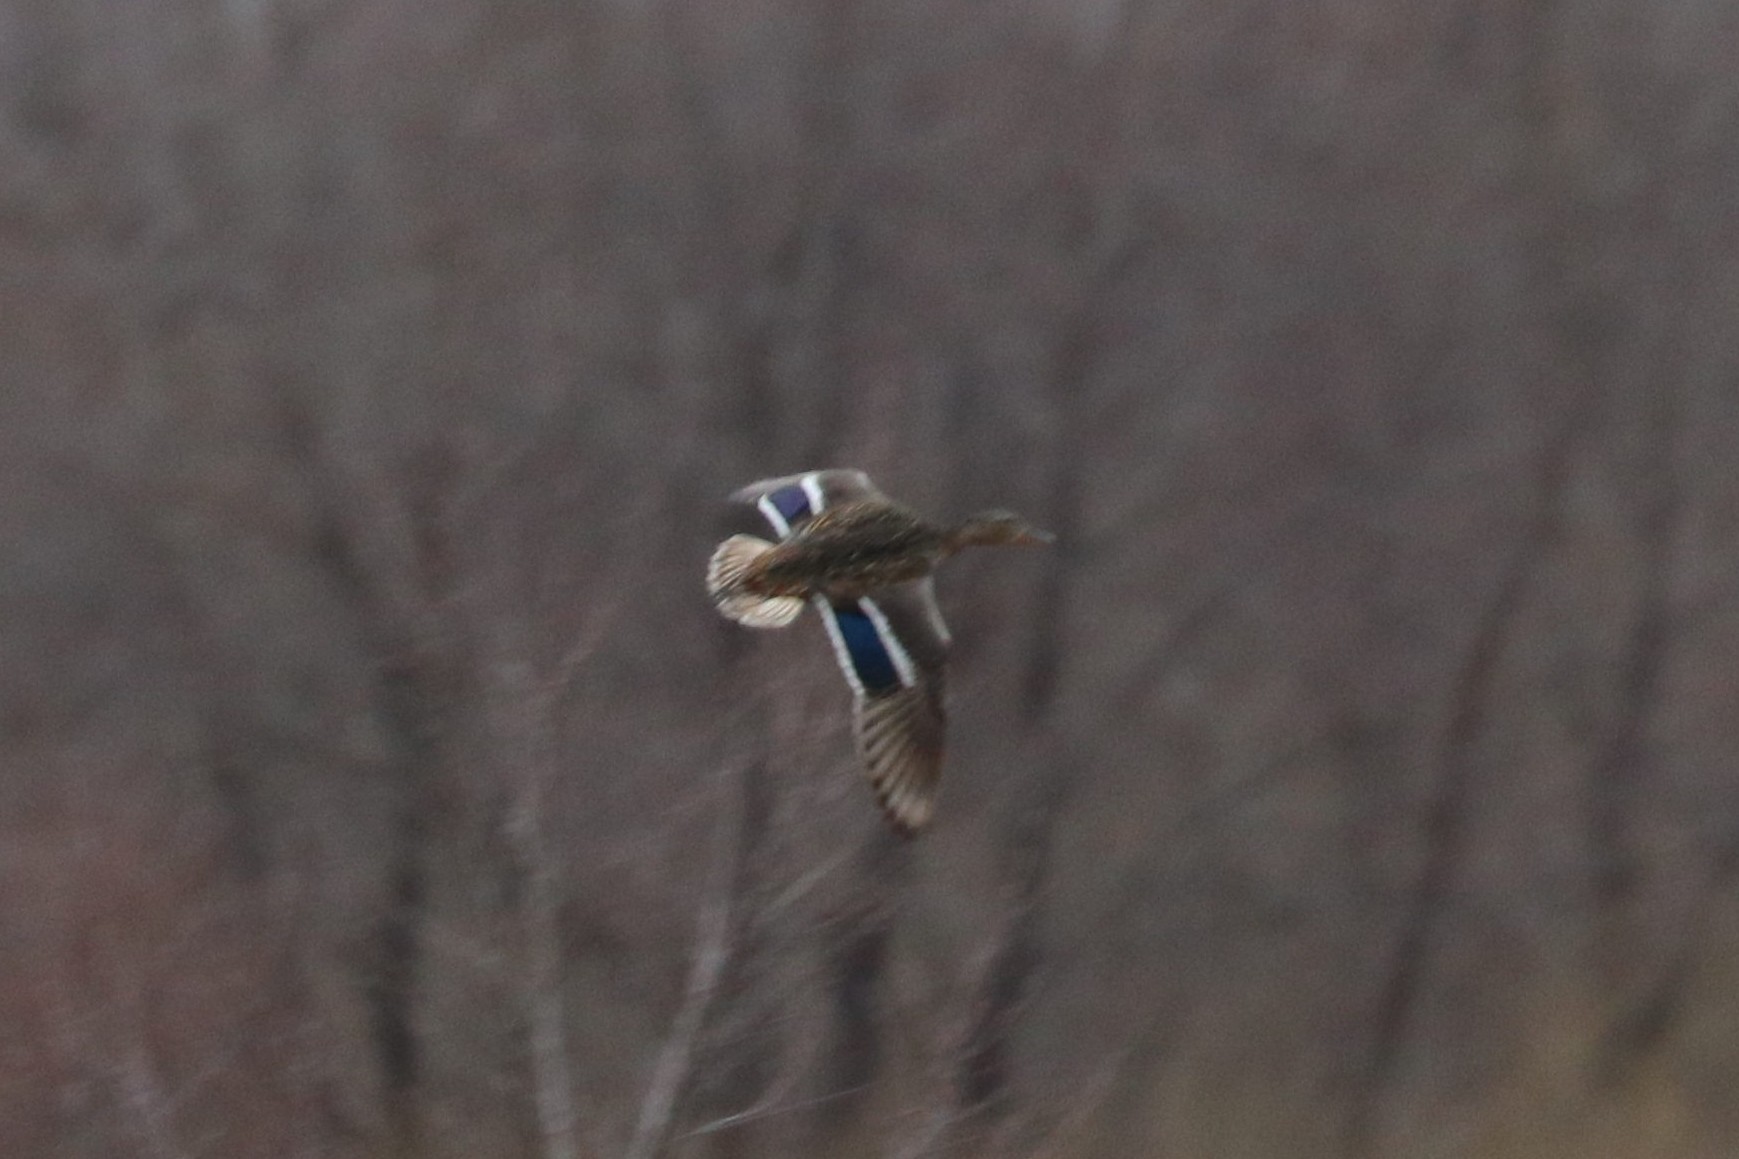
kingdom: Animalia
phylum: Chordata
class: Aves
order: Anseriformes
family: Anatidae
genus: Anas
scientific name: Anas platyrhynchos
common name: Mallard
